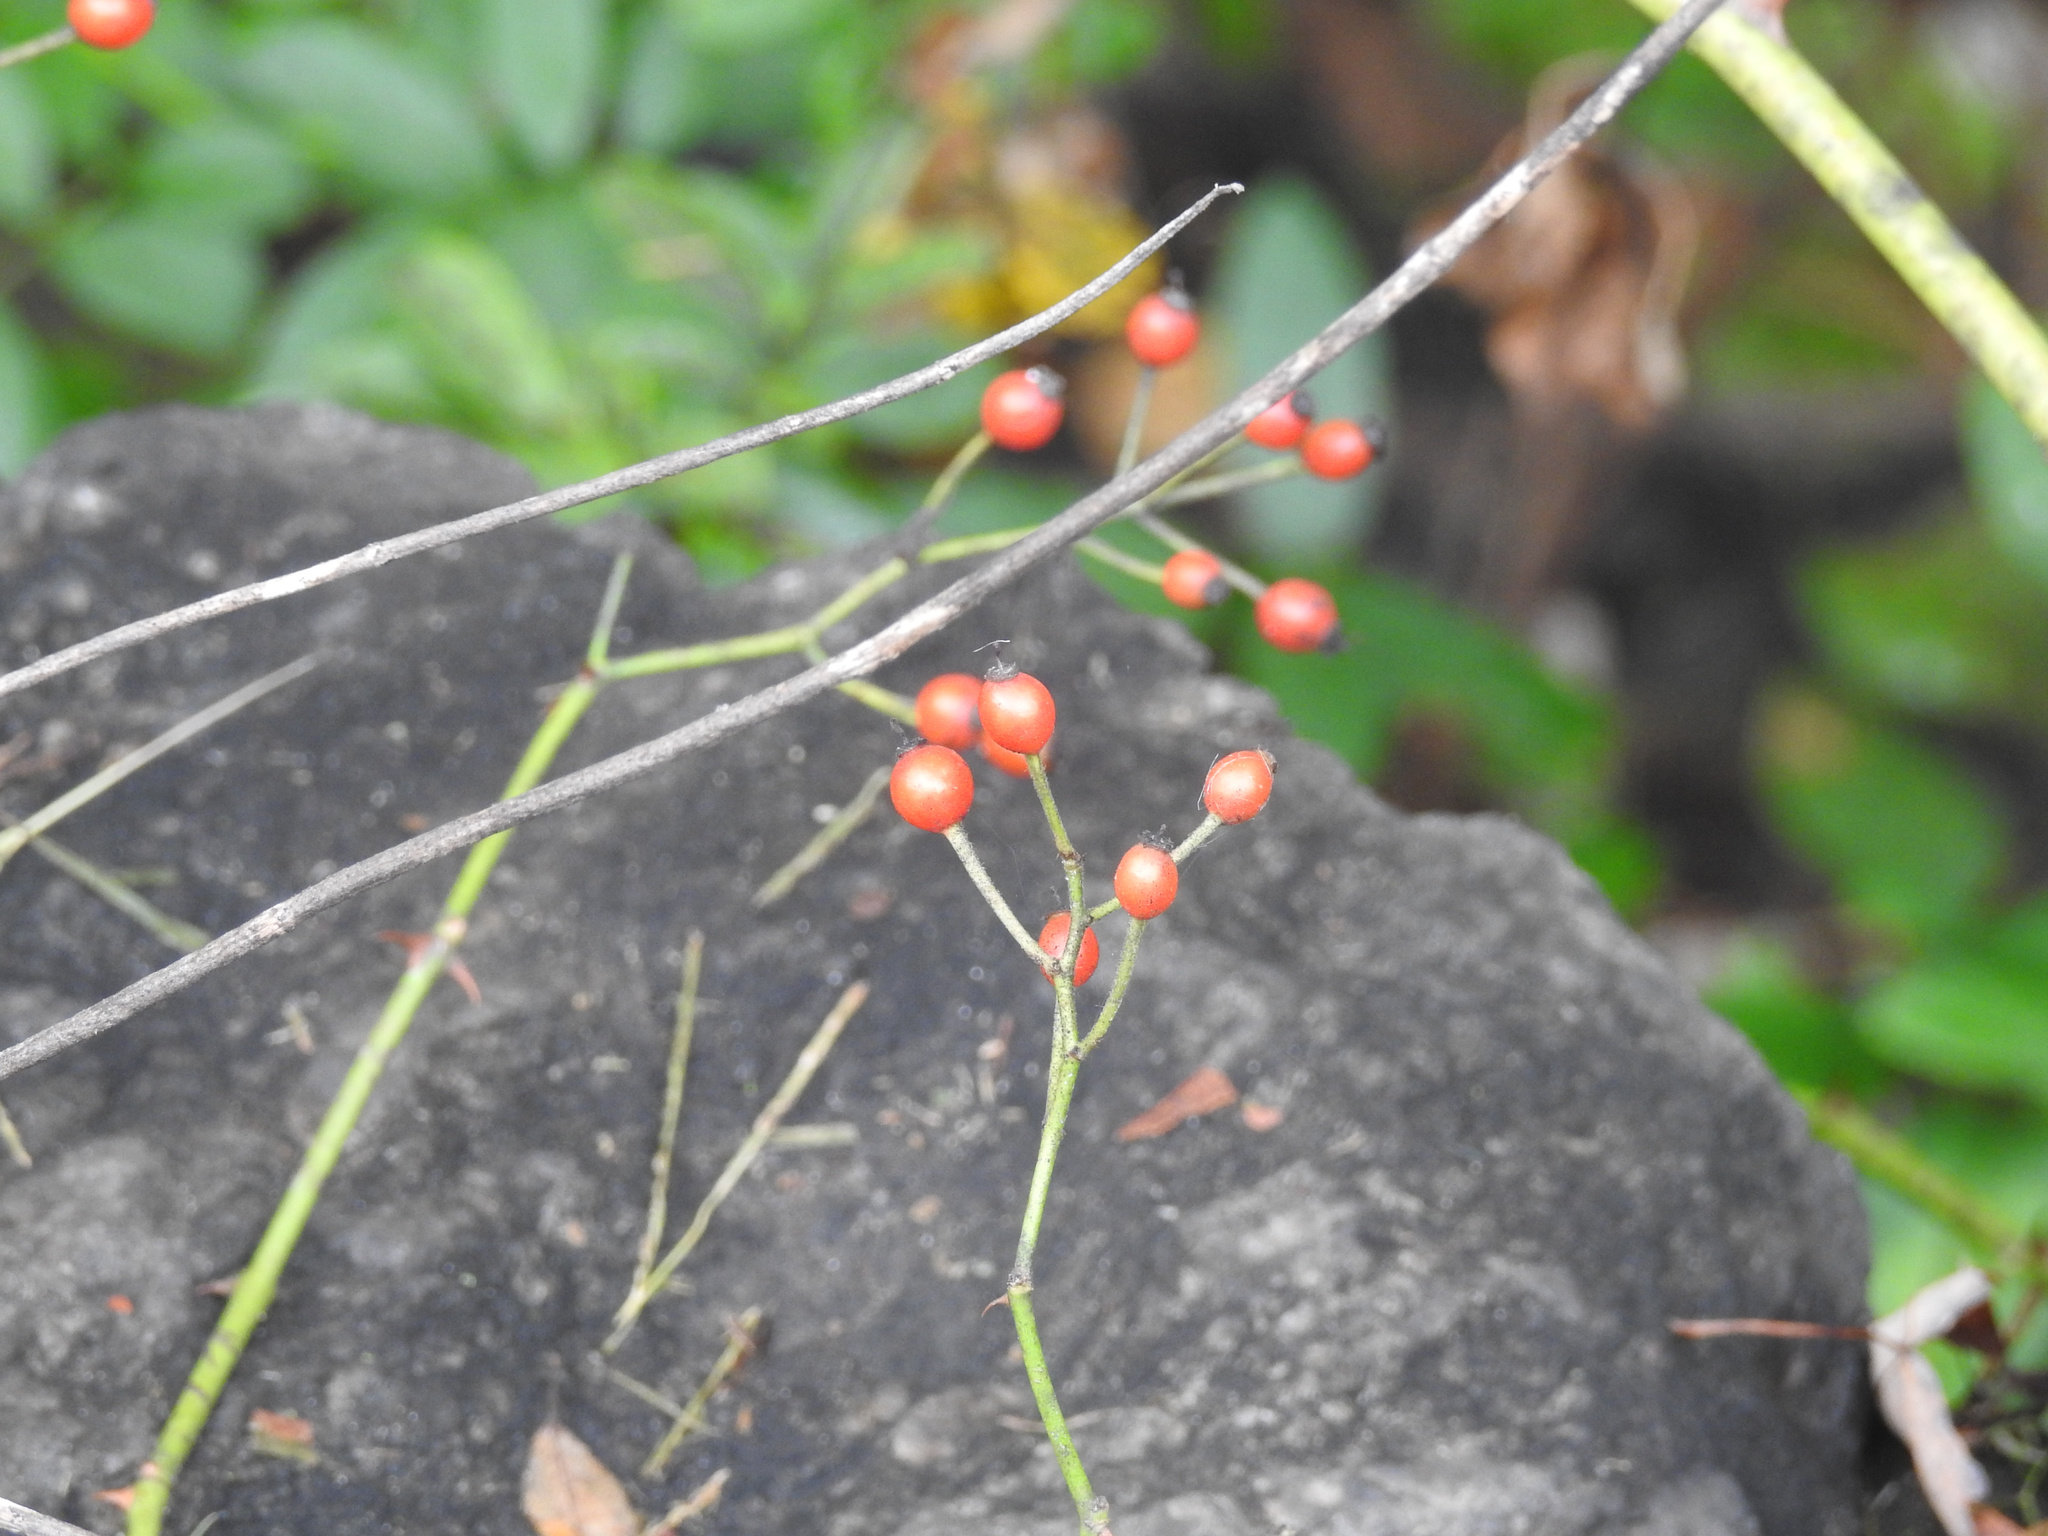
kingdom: Plantae
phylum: Tracheophyta
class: Magnoliopsida
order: Rosales
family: Rosaceae
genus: Rosa
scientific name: Rosa multiflora
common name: Multiflora rose
